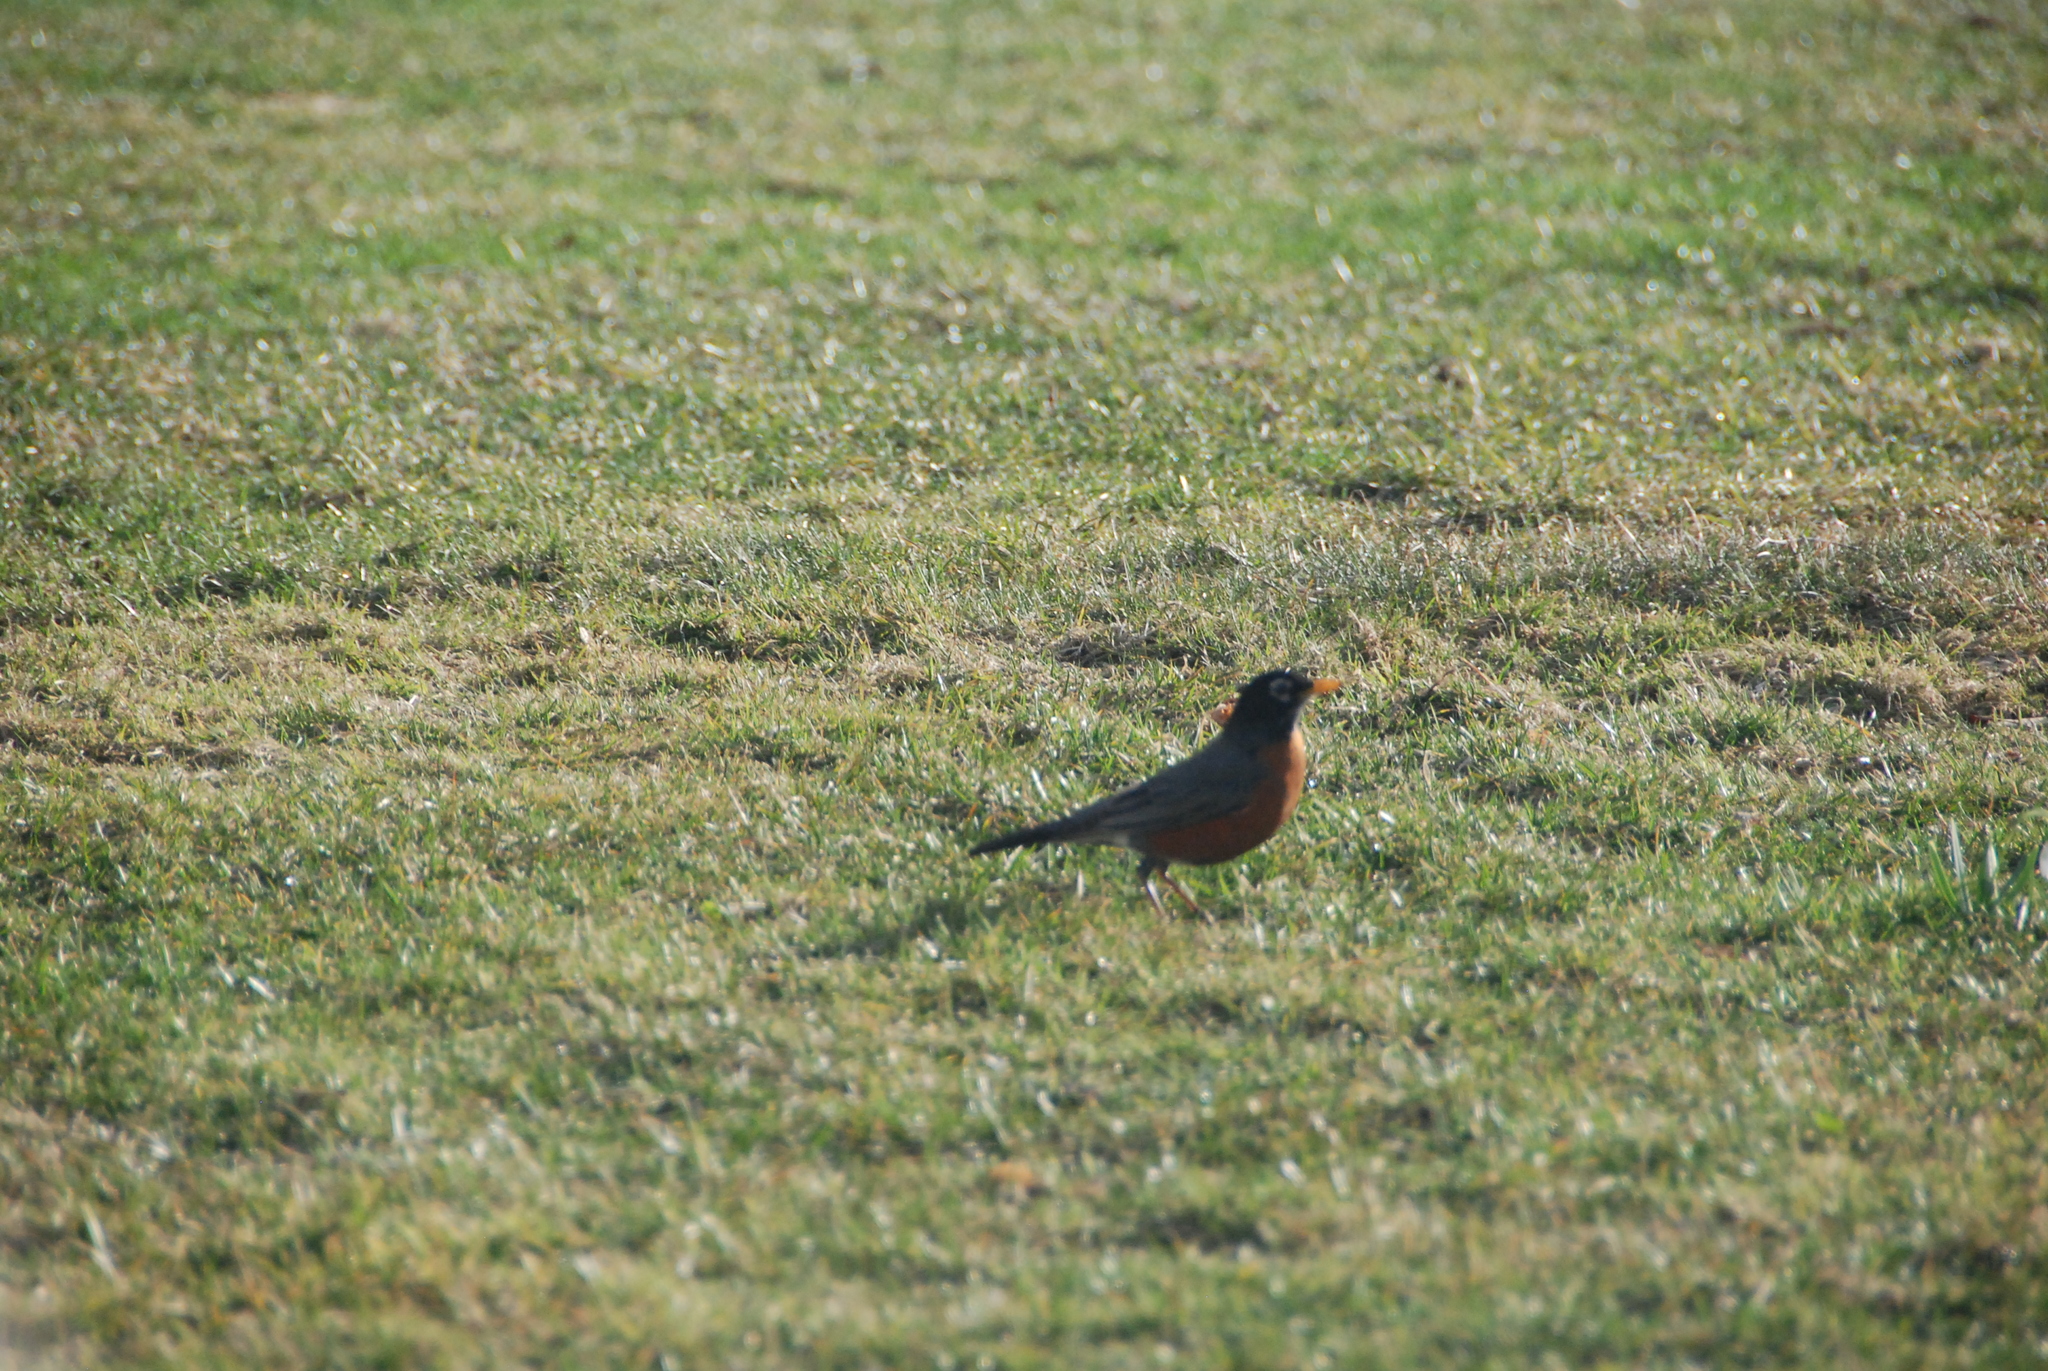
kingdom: Animalia
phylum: Chordata
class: Aves
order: Passeriformes
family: Turdidae
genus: Turdus
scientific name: Turdus migratorius
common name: American robin
